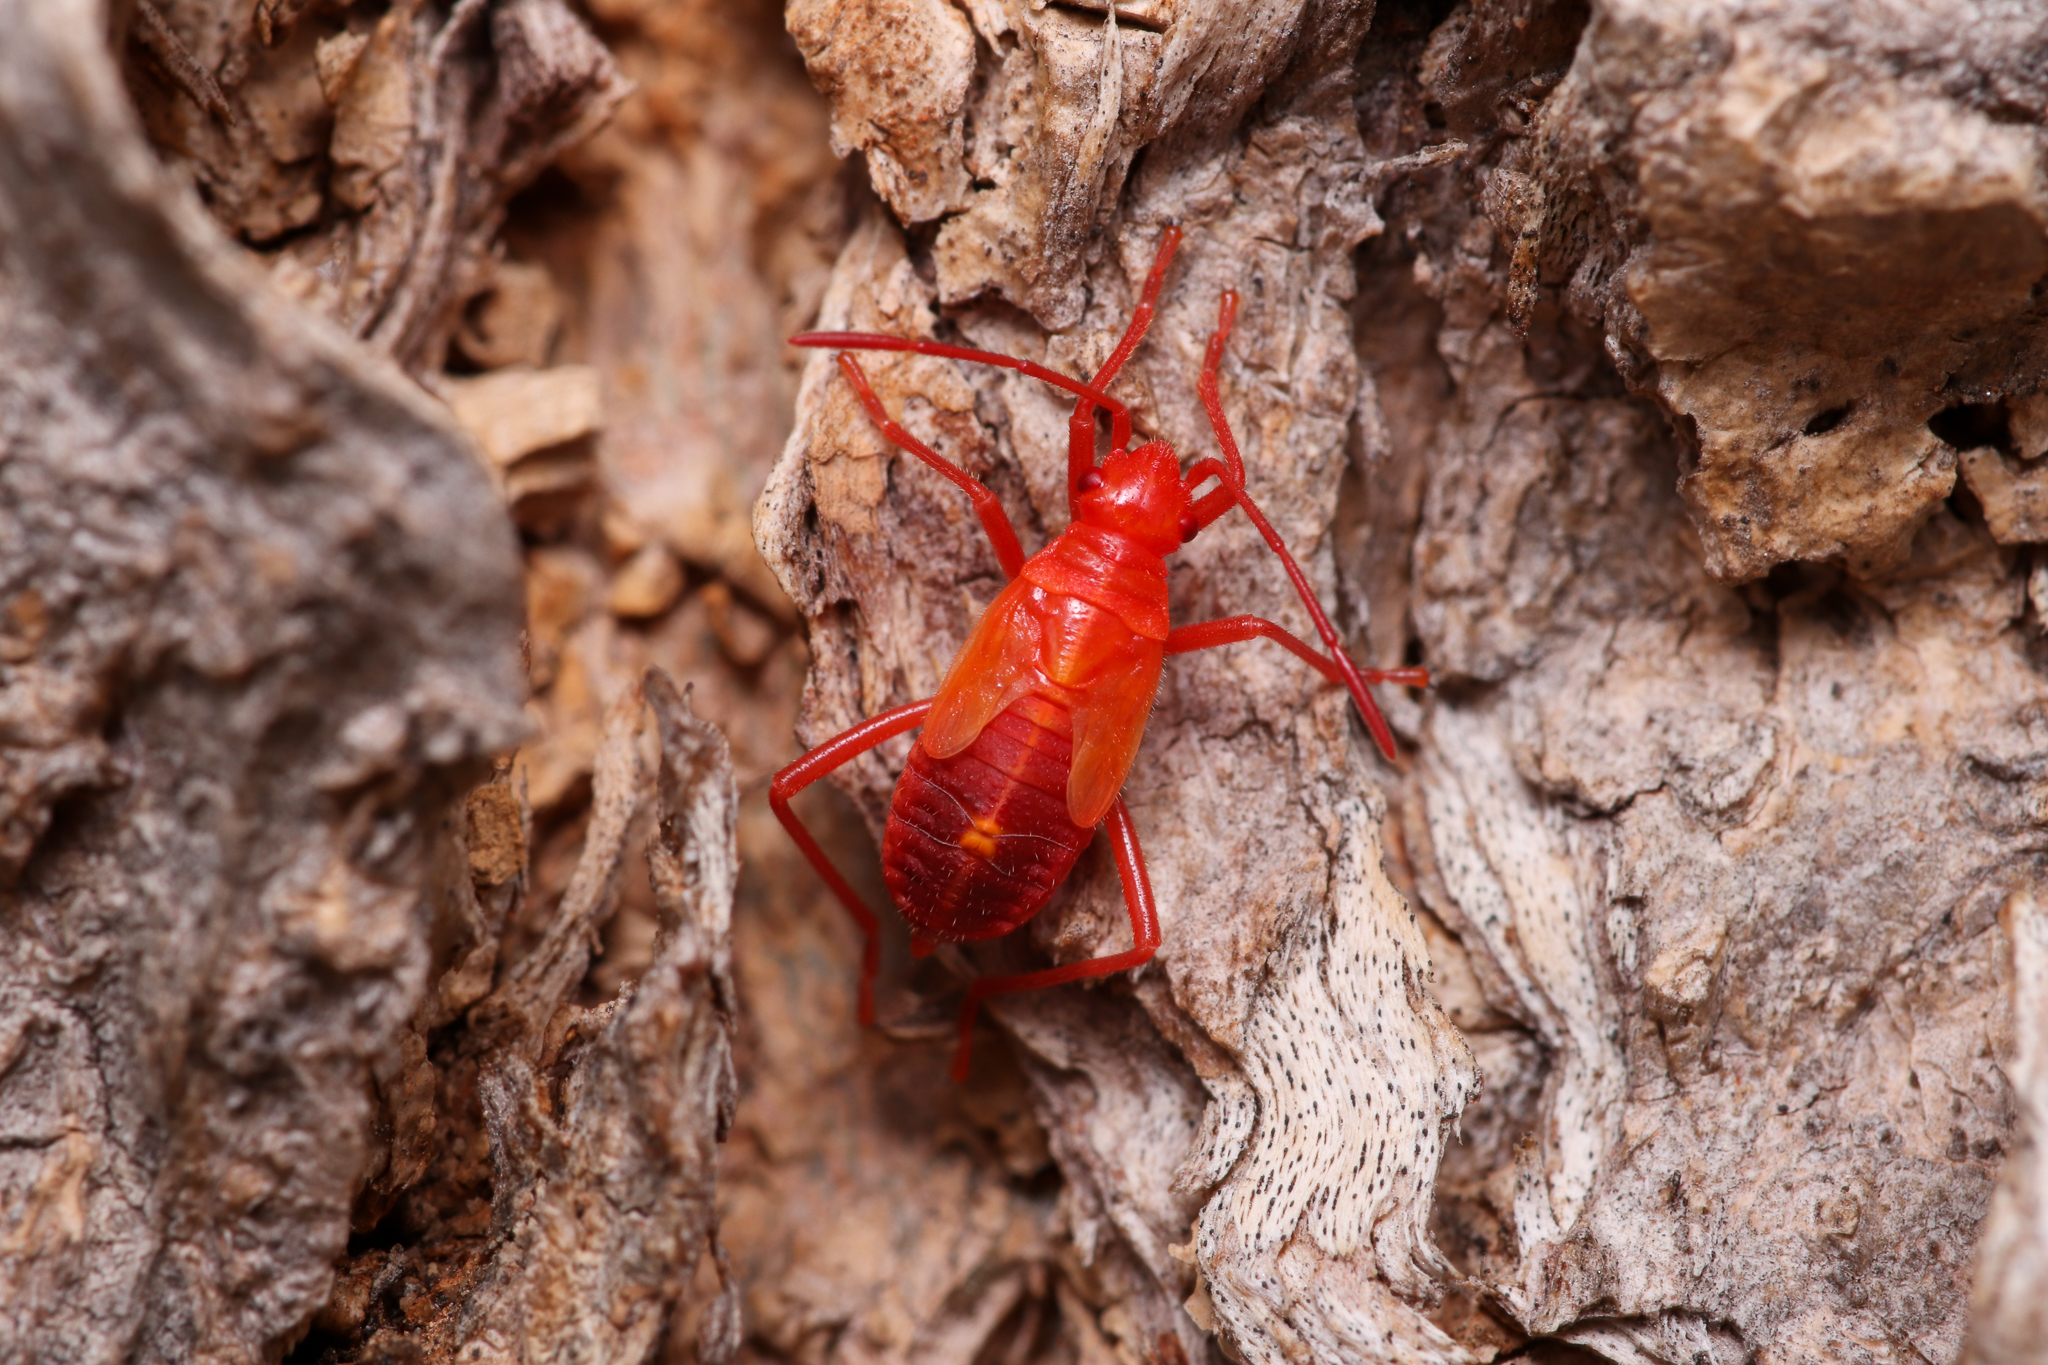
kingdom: Animalia
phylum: Arthropoda
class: Insecta
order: Hemiptera
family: Rhopalidae
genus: Boisea
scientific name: Boisea trivittata
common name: Boxelder bug
